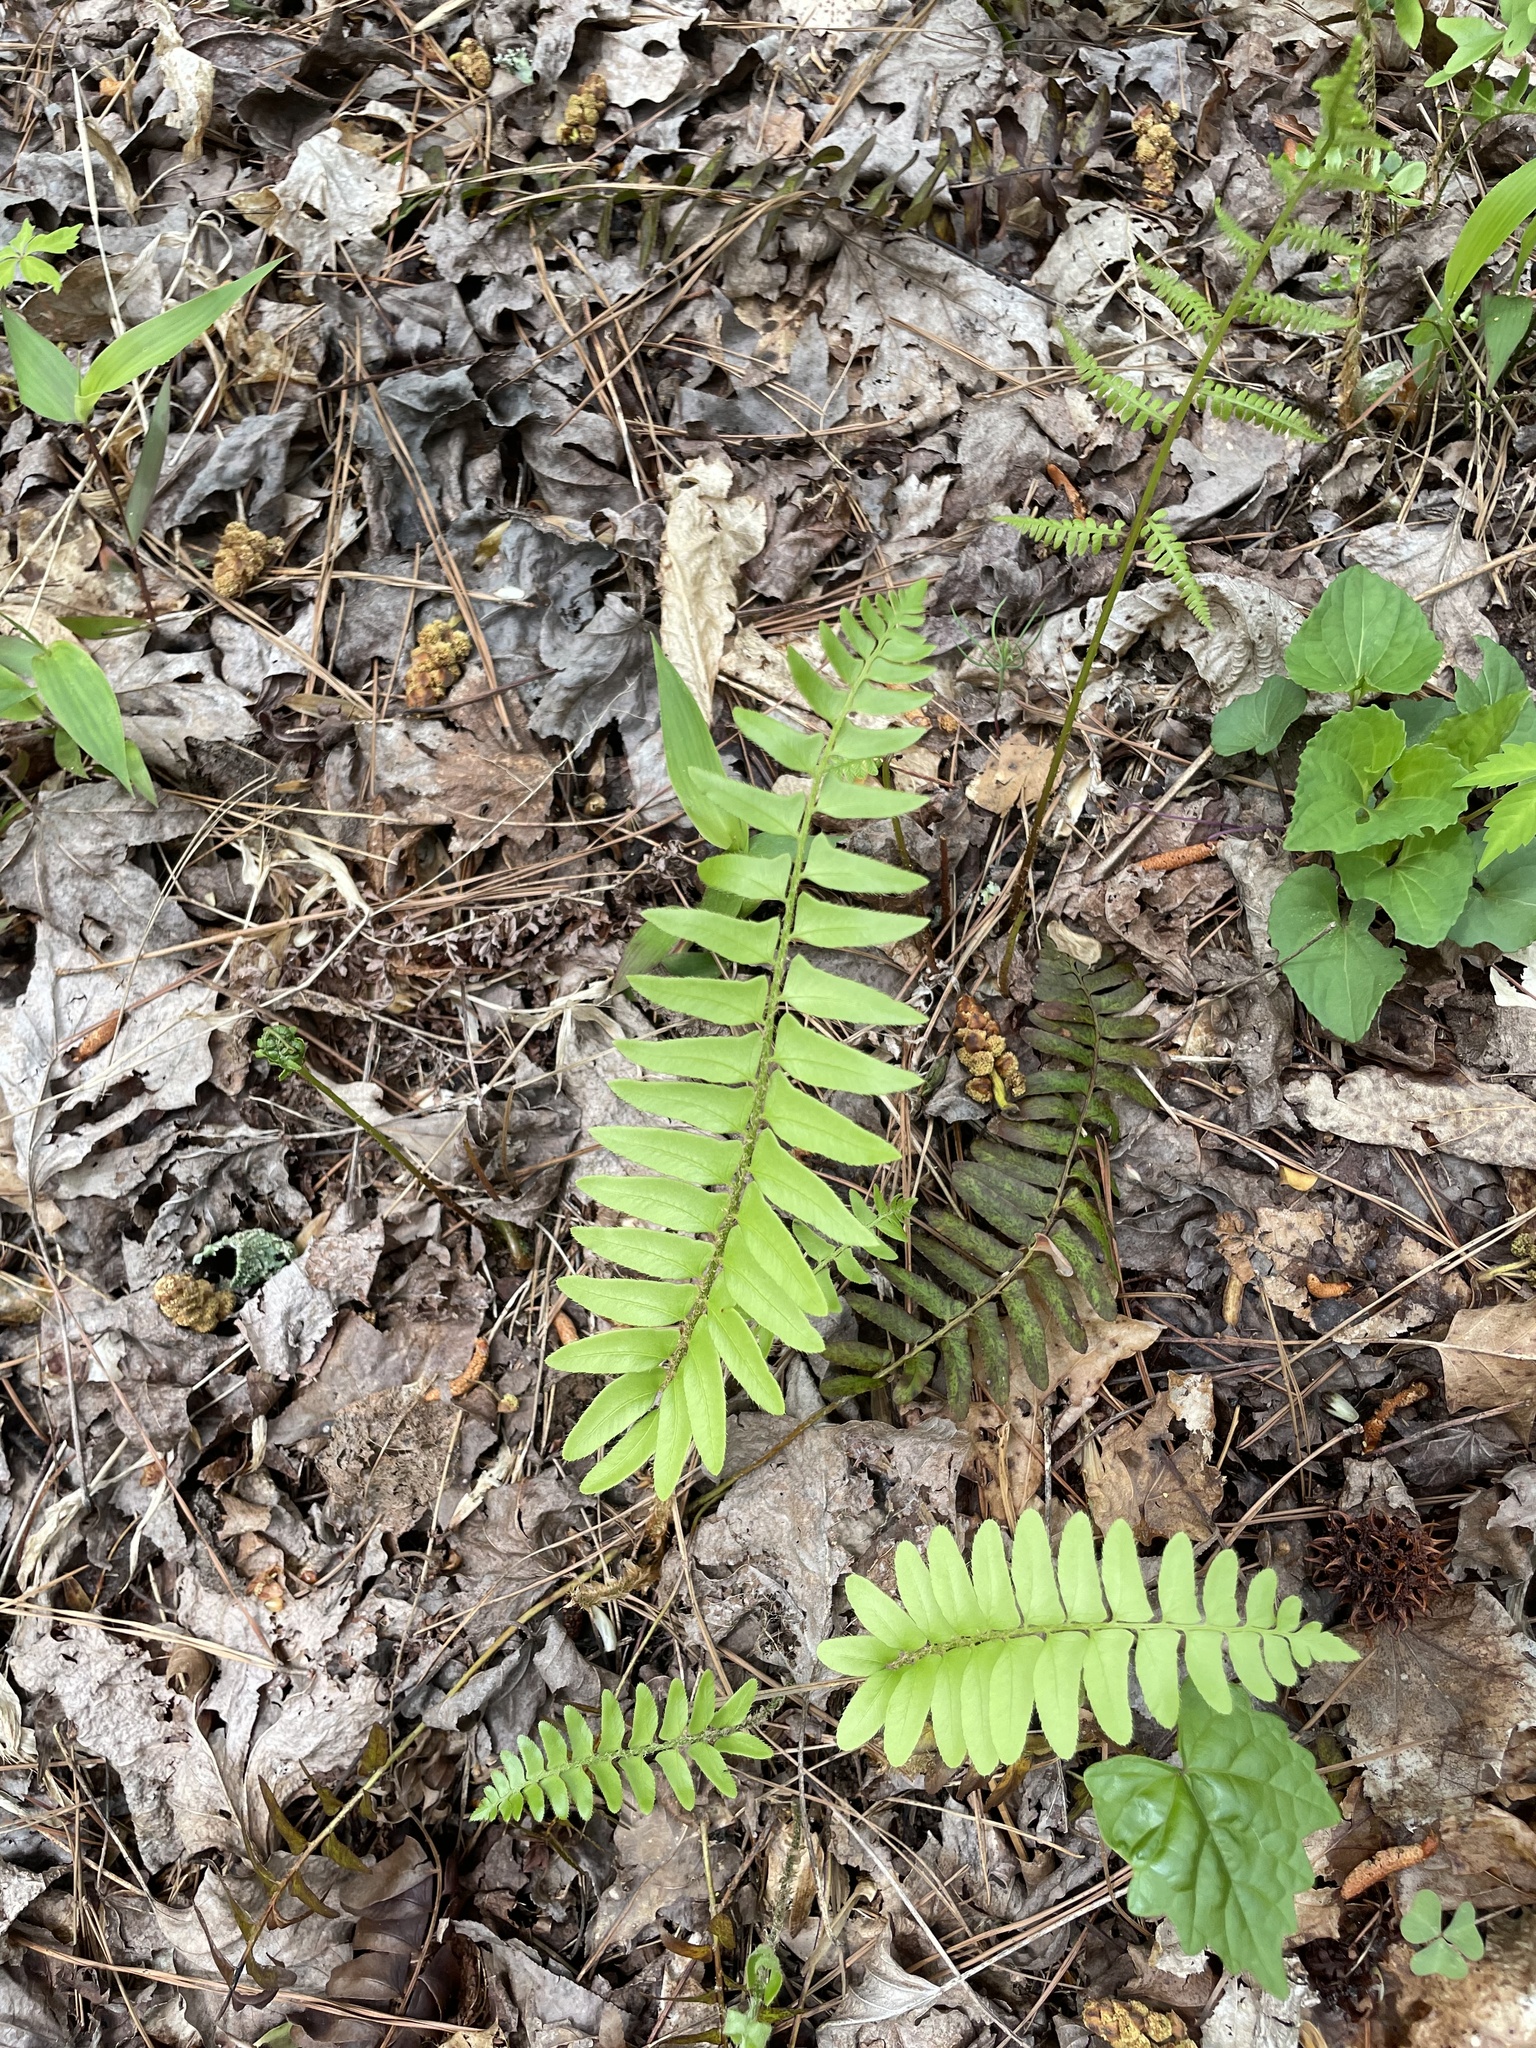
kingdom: Plantae
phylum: Tracheophyta
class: Polypodiopsida
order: Polypodiales
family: Dryopteridaceae
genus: Polystichum
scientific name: Polystichum acrostichoides
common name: Christmas fern
